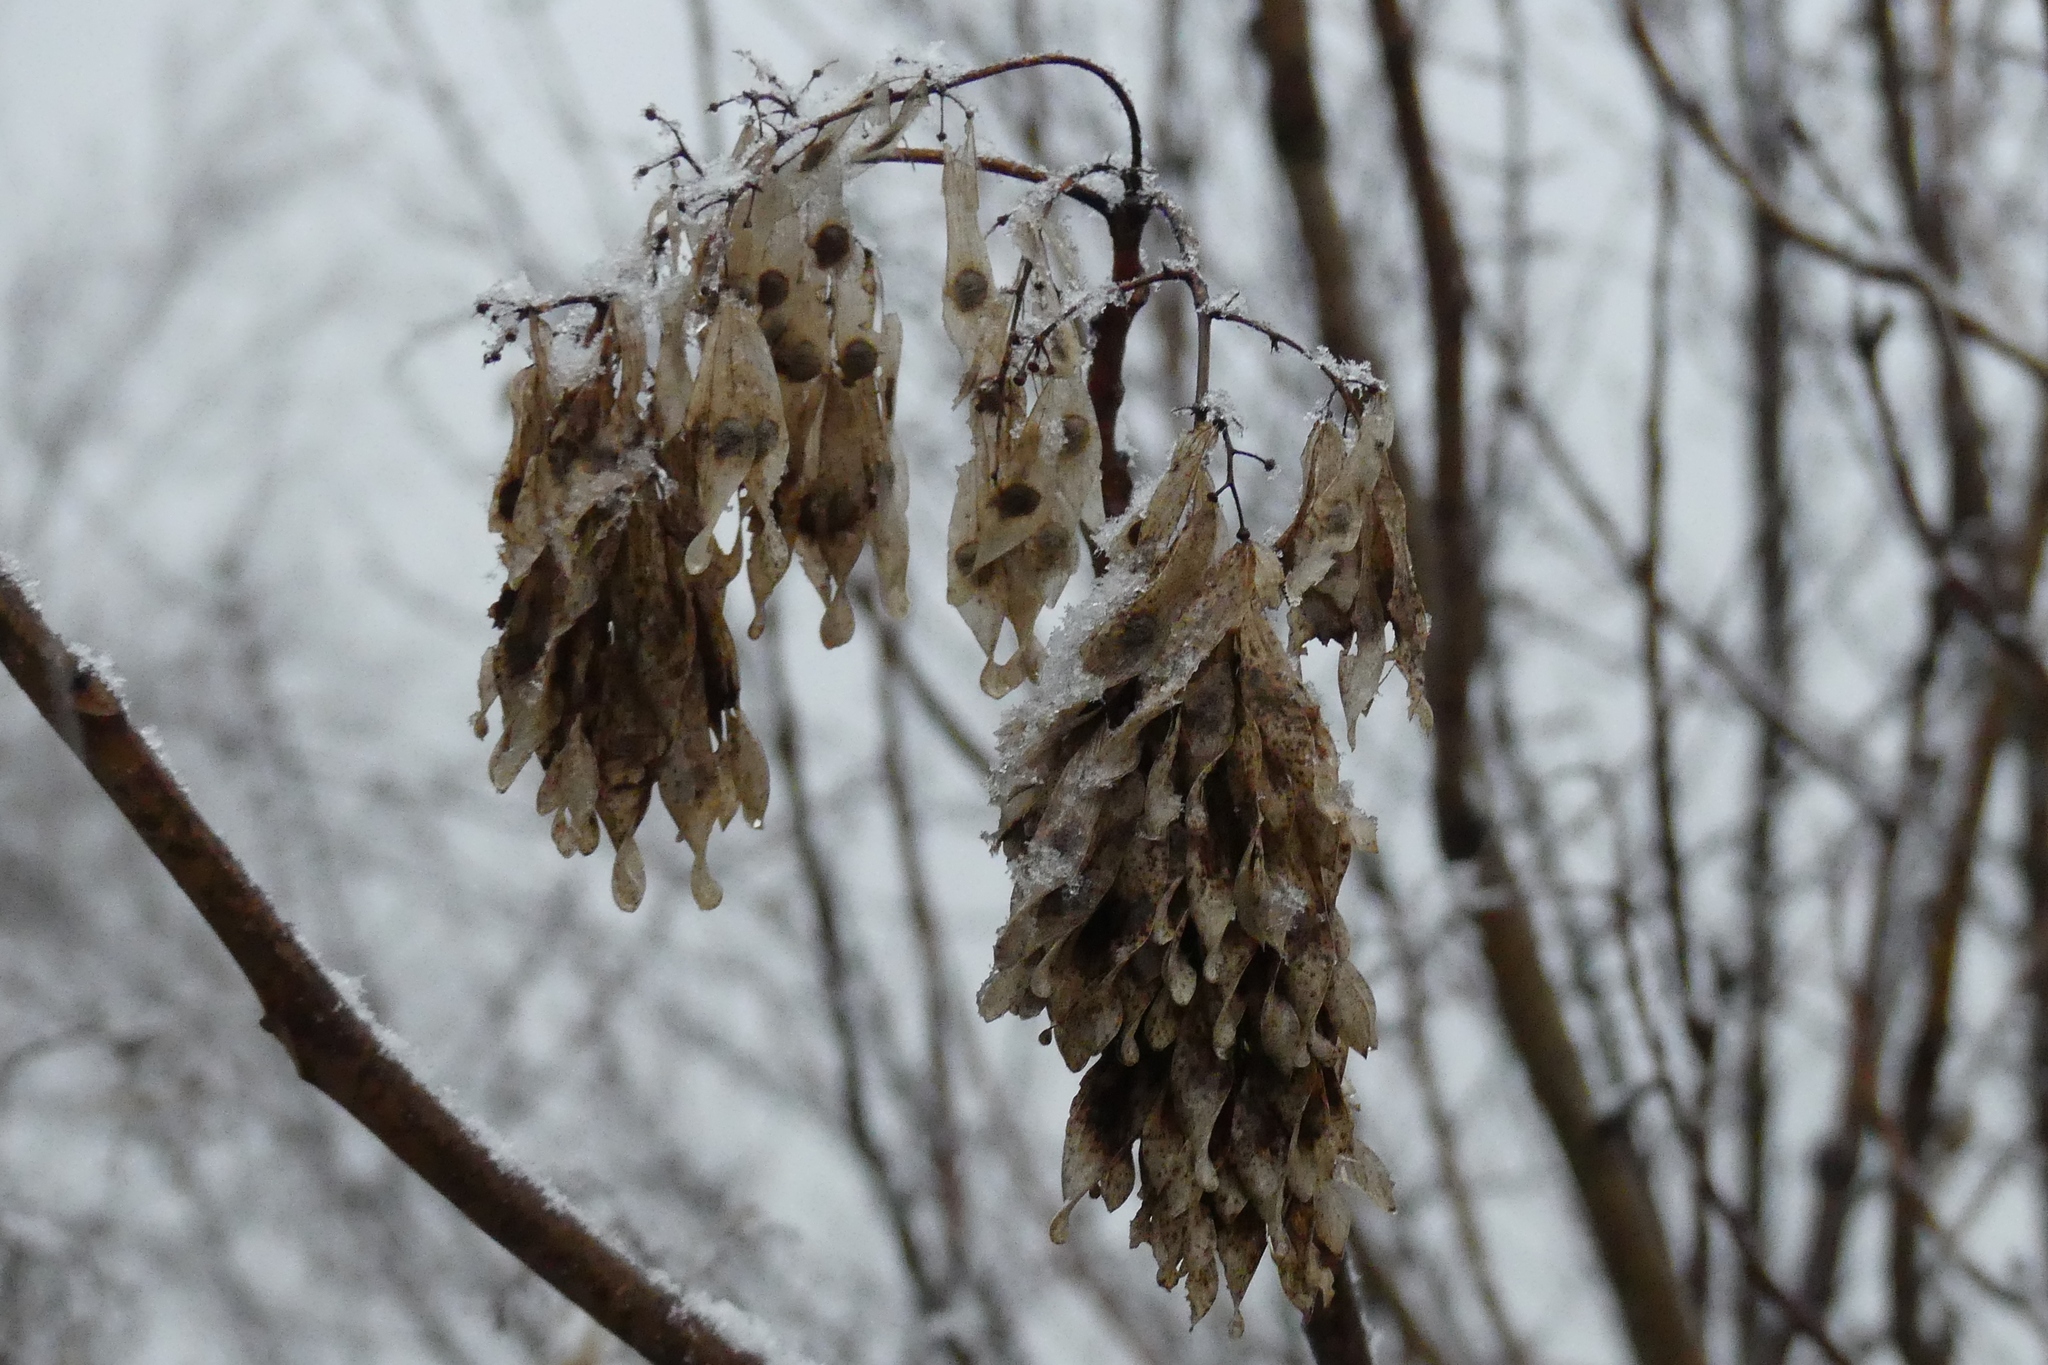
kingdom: Plantae
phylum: Tracheophyta
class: Magnoliopsida
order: Sapindales
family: Simaroubaceae
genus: Ailanthus
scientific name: Ailanthus altissima
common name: Tree-of-heaven
